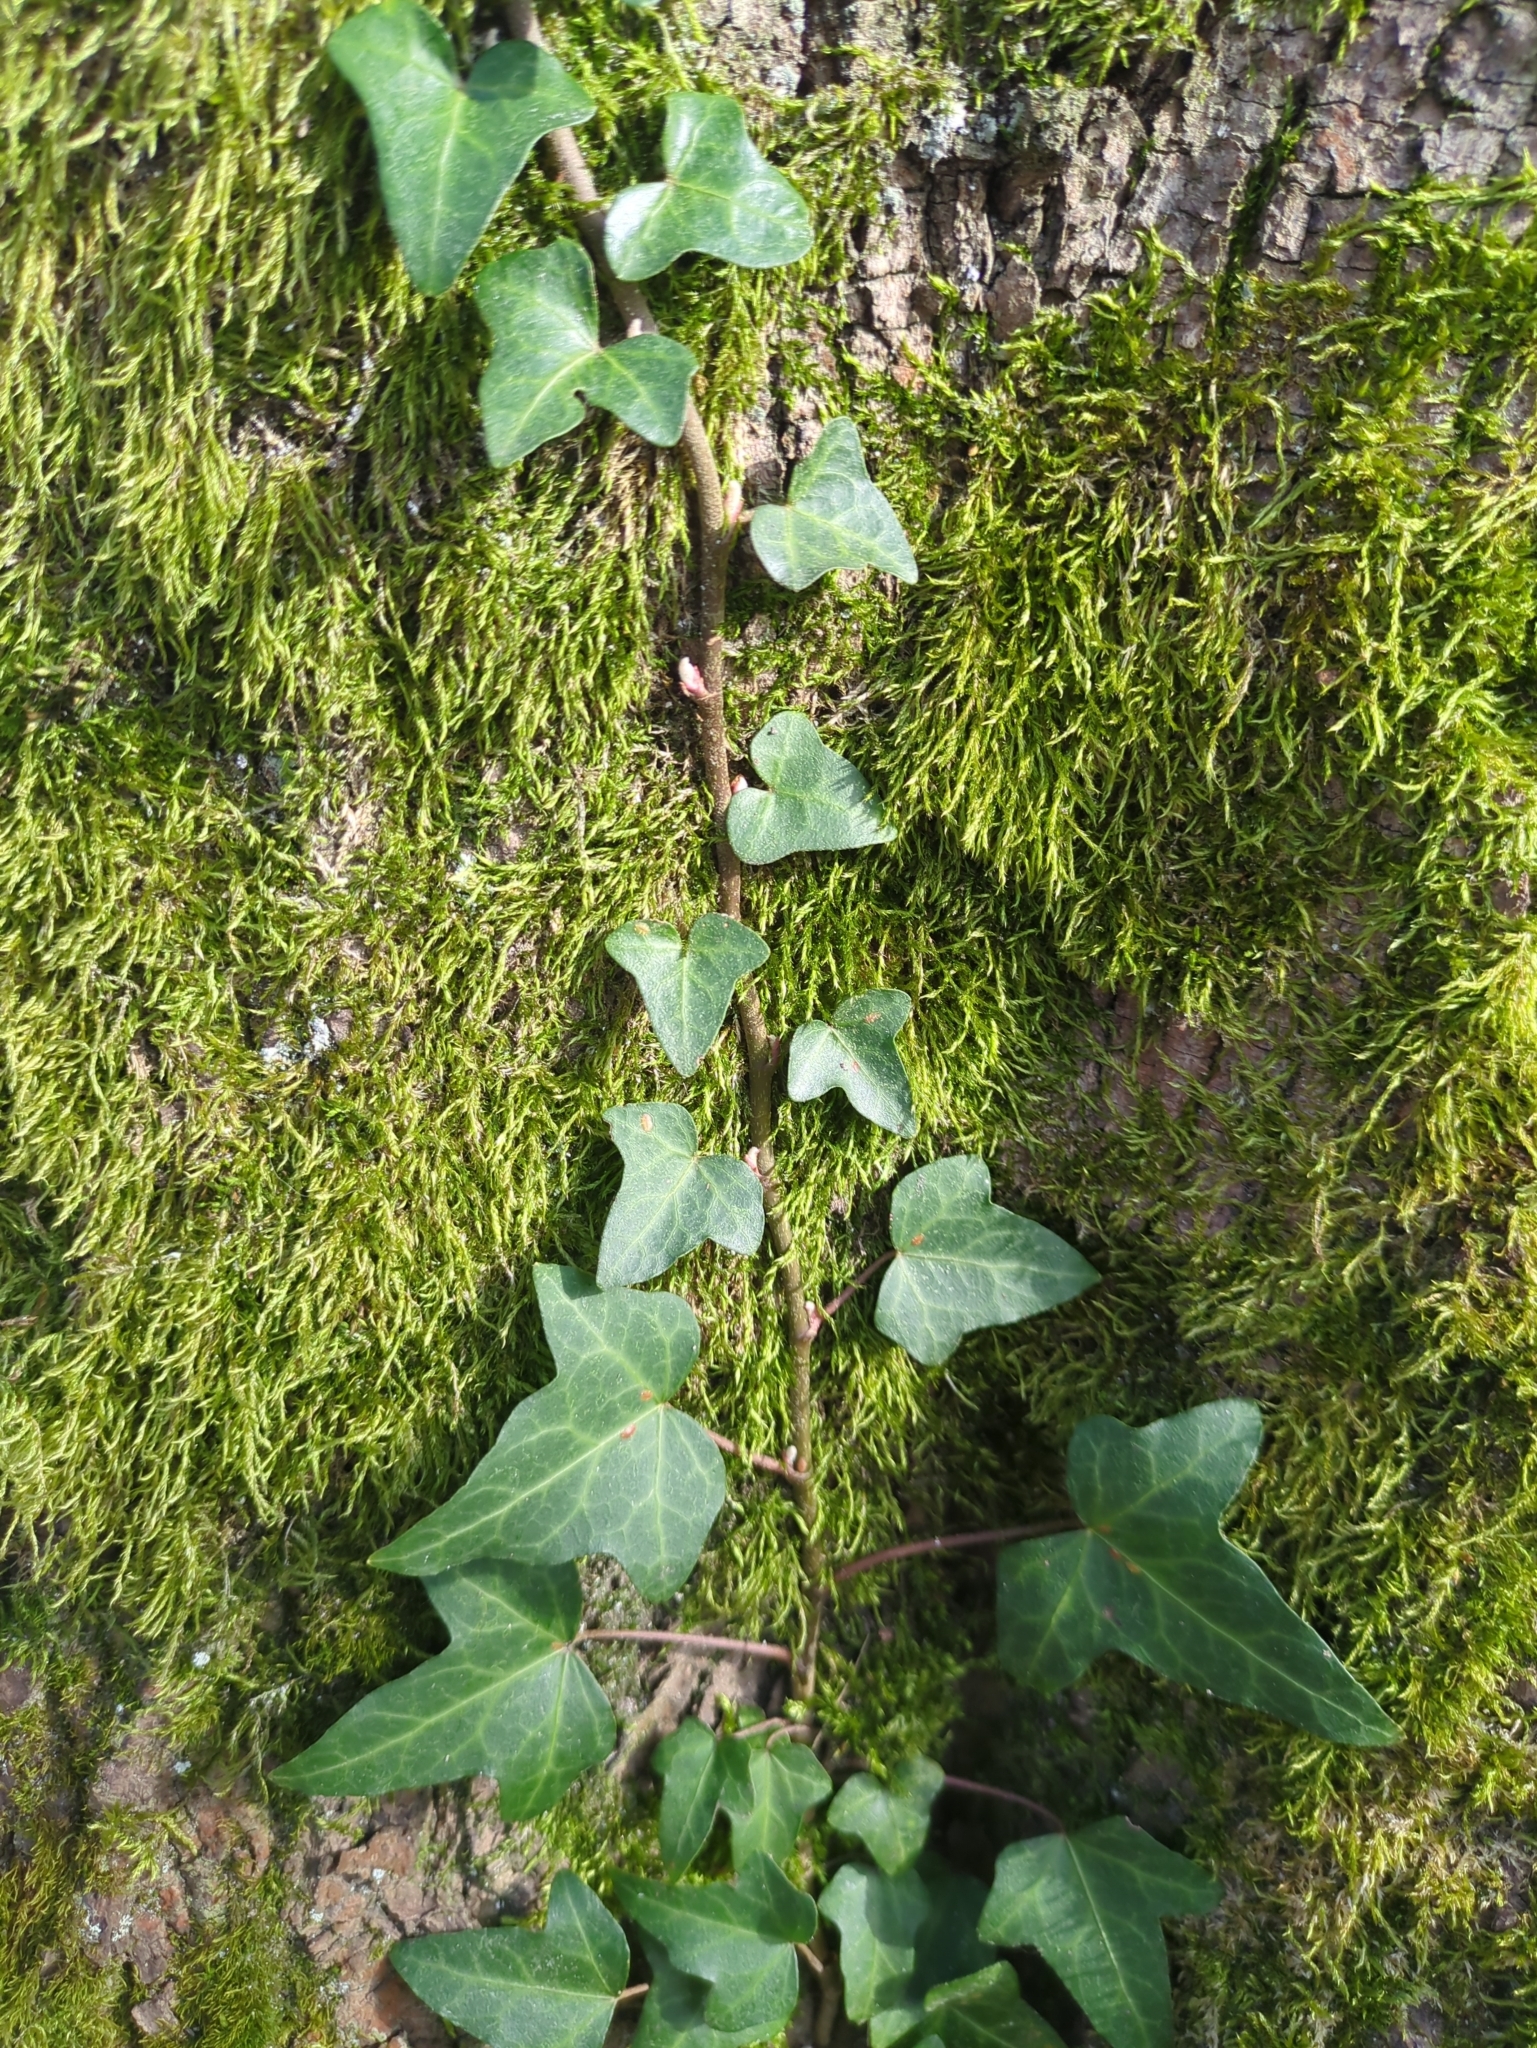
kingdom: Plantae
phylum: Tracheophyta
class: Magnoliopsida
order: Apiales
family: Araliaceae
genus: Hedera
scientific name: Hedera helix
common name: Ivy
